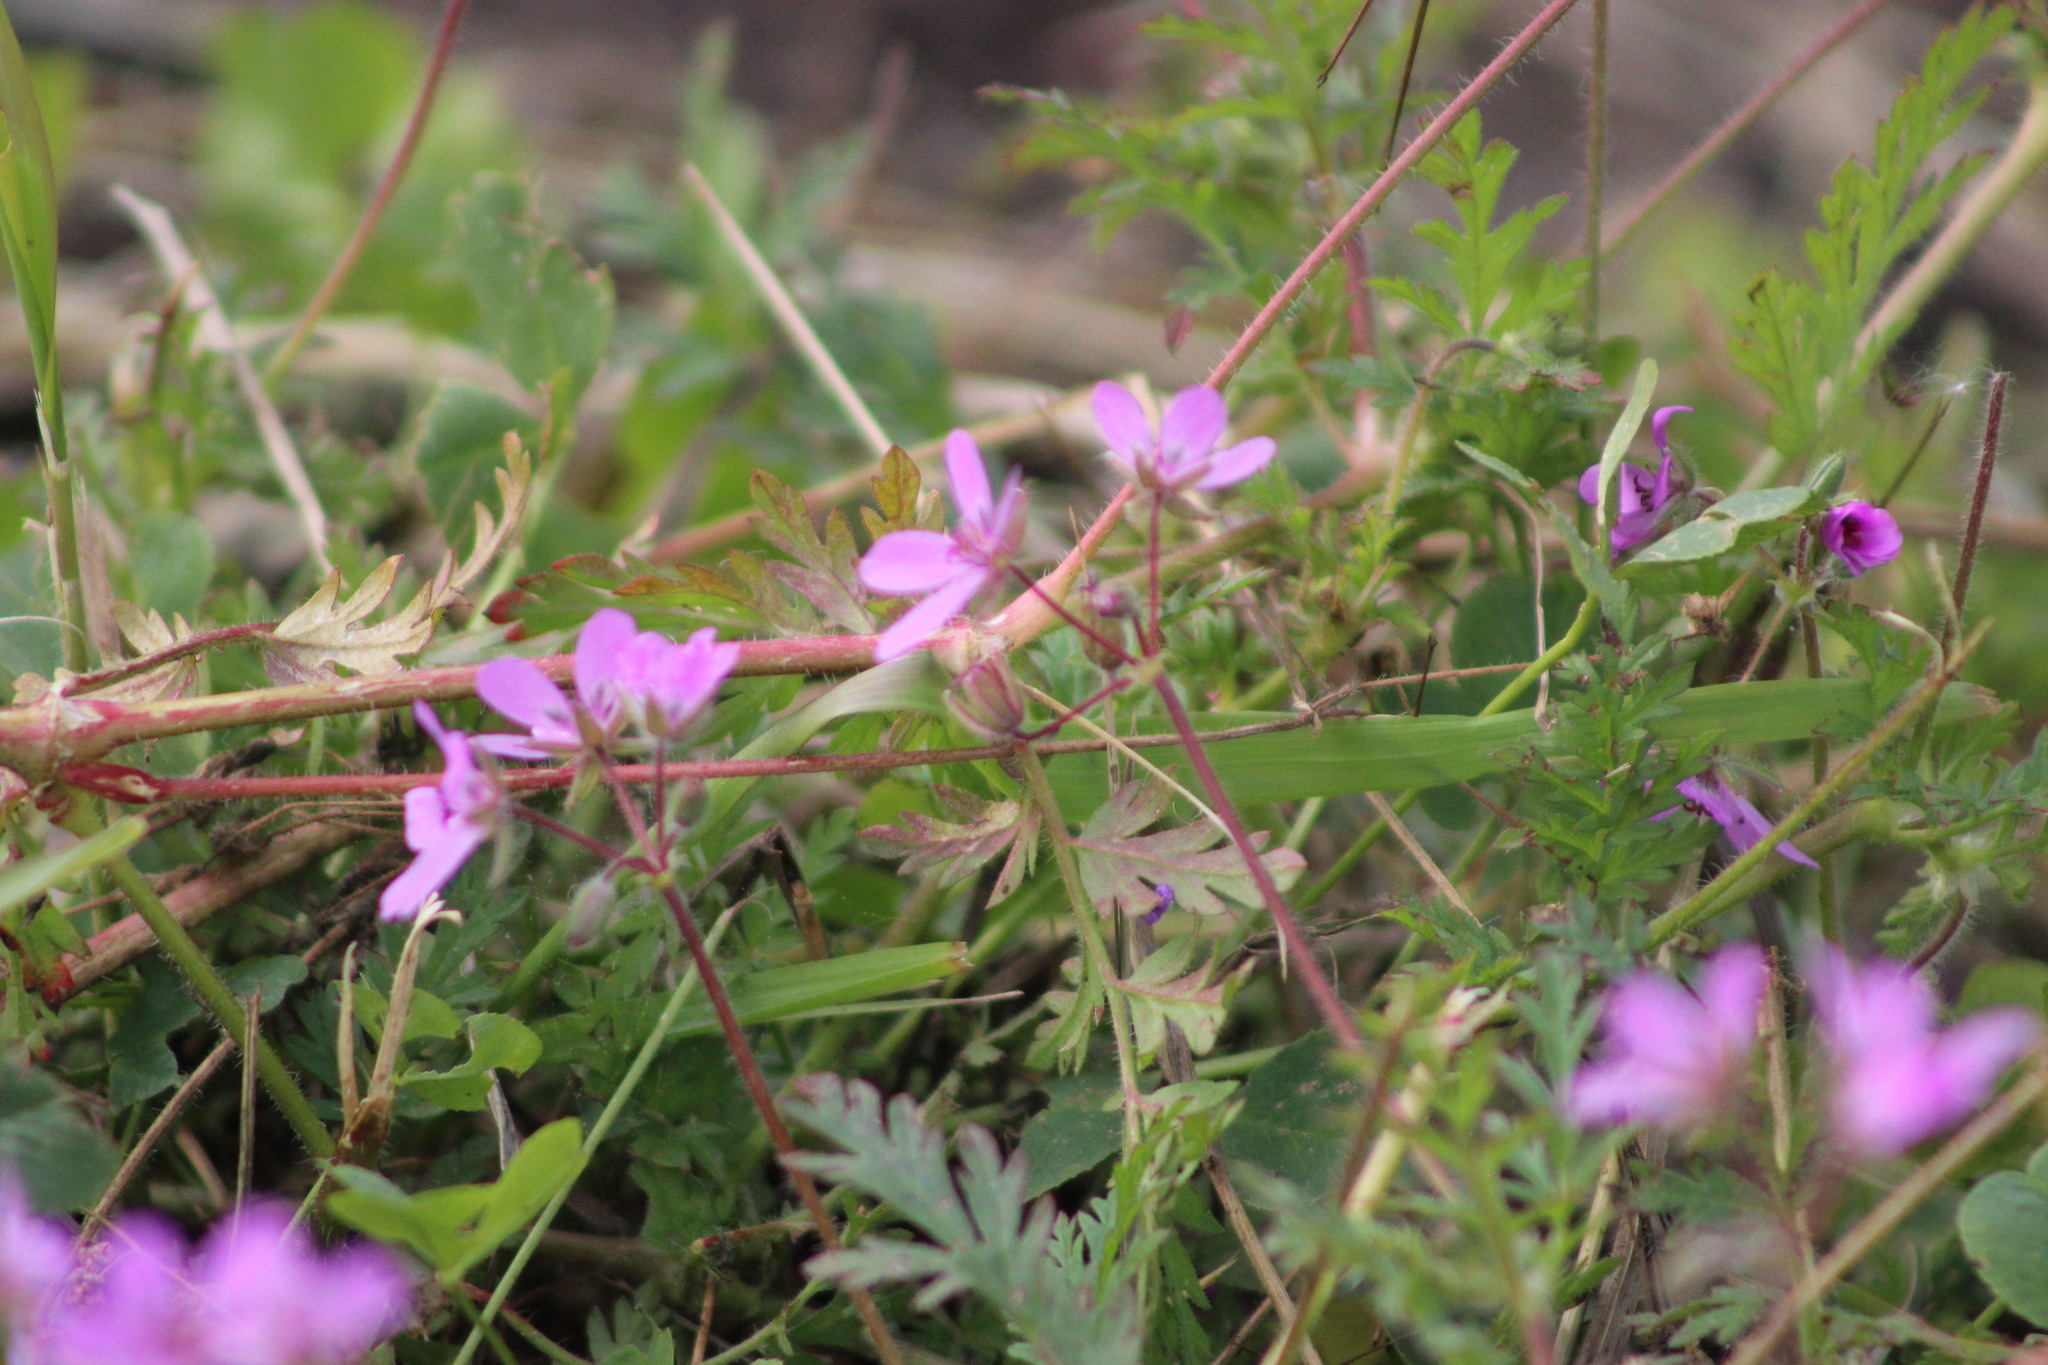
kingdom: Plantae
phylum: Tracheophyta
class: Magnoliopsida
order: Geraniales
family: Geraniaceae
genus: Erodium
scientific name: Erodium cicutarium
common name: Common stork's-bill
